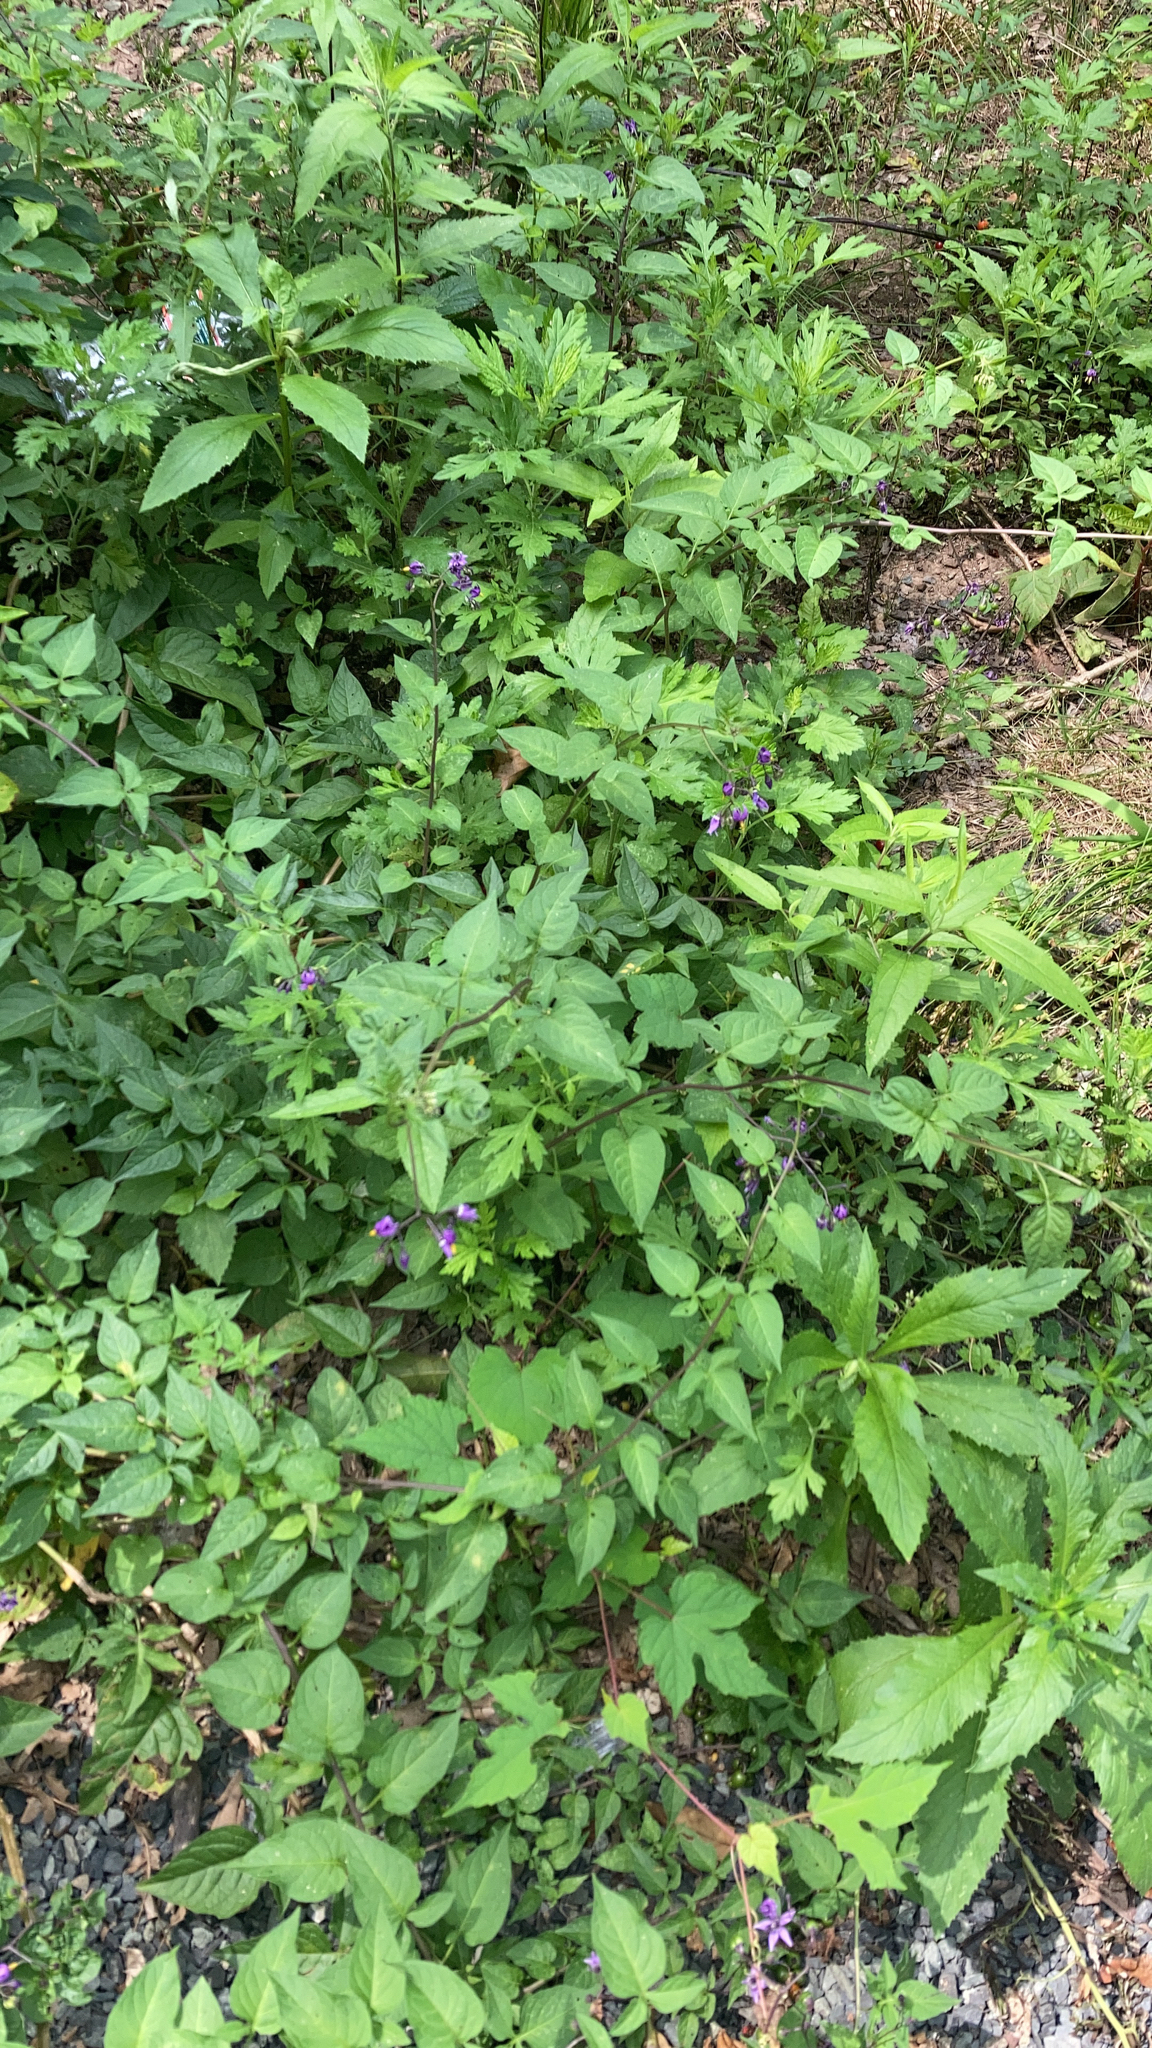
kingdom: Plantae
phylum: Tracheophyta
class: Magnoliopsida
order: Solanales
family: Solanaceae
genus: Solanum
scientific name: Solanum dulcamara
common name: Climbing nightshade
